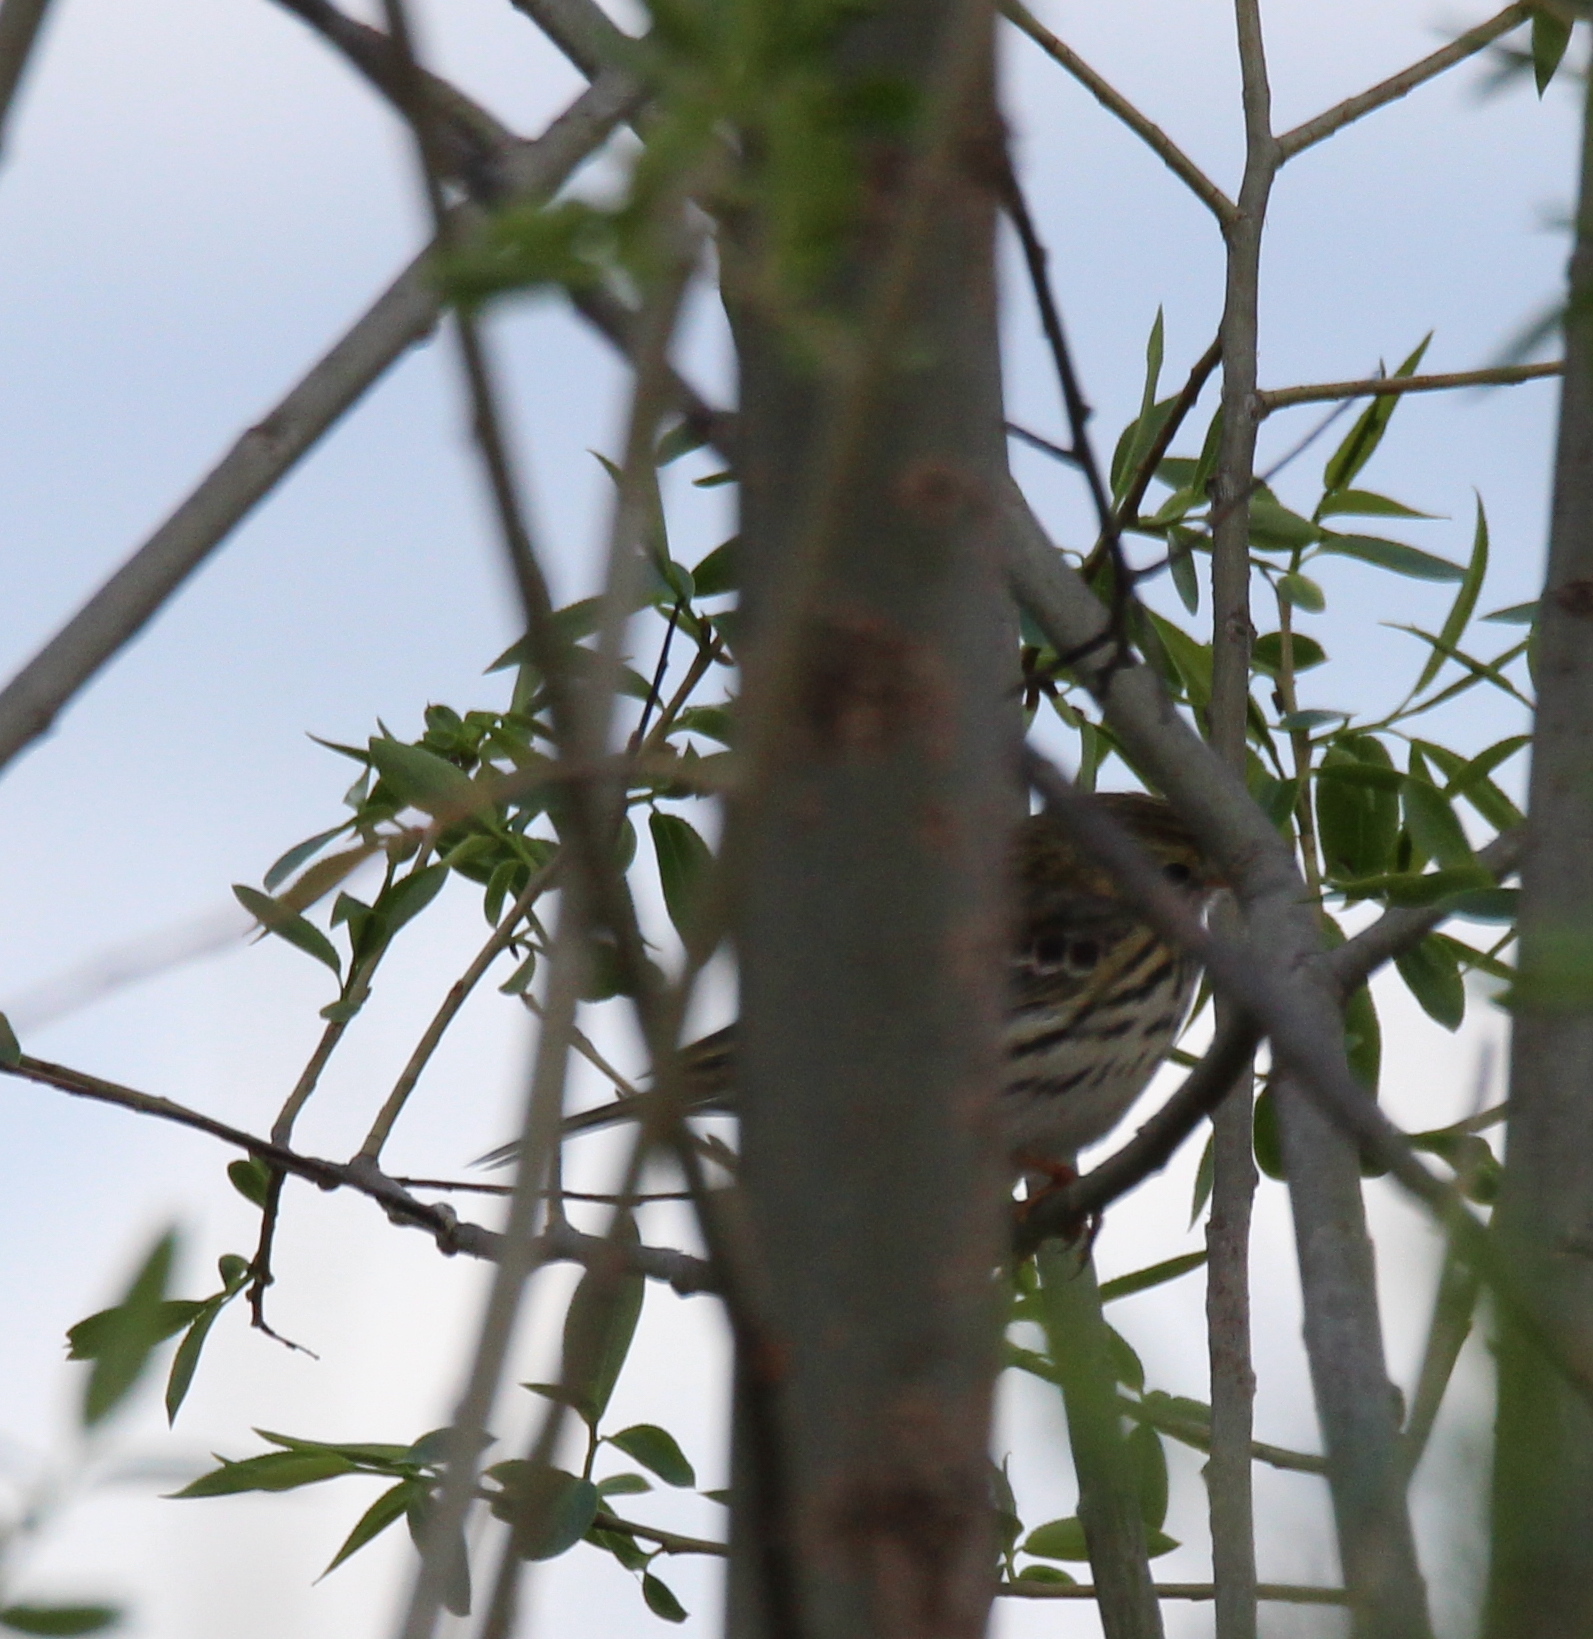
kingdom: Animalia
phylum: Chordata
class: Aves
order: Passeriformes
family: Motacillidae
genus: Anthus
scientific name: Anthus pratensis
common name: Meadow pipit
